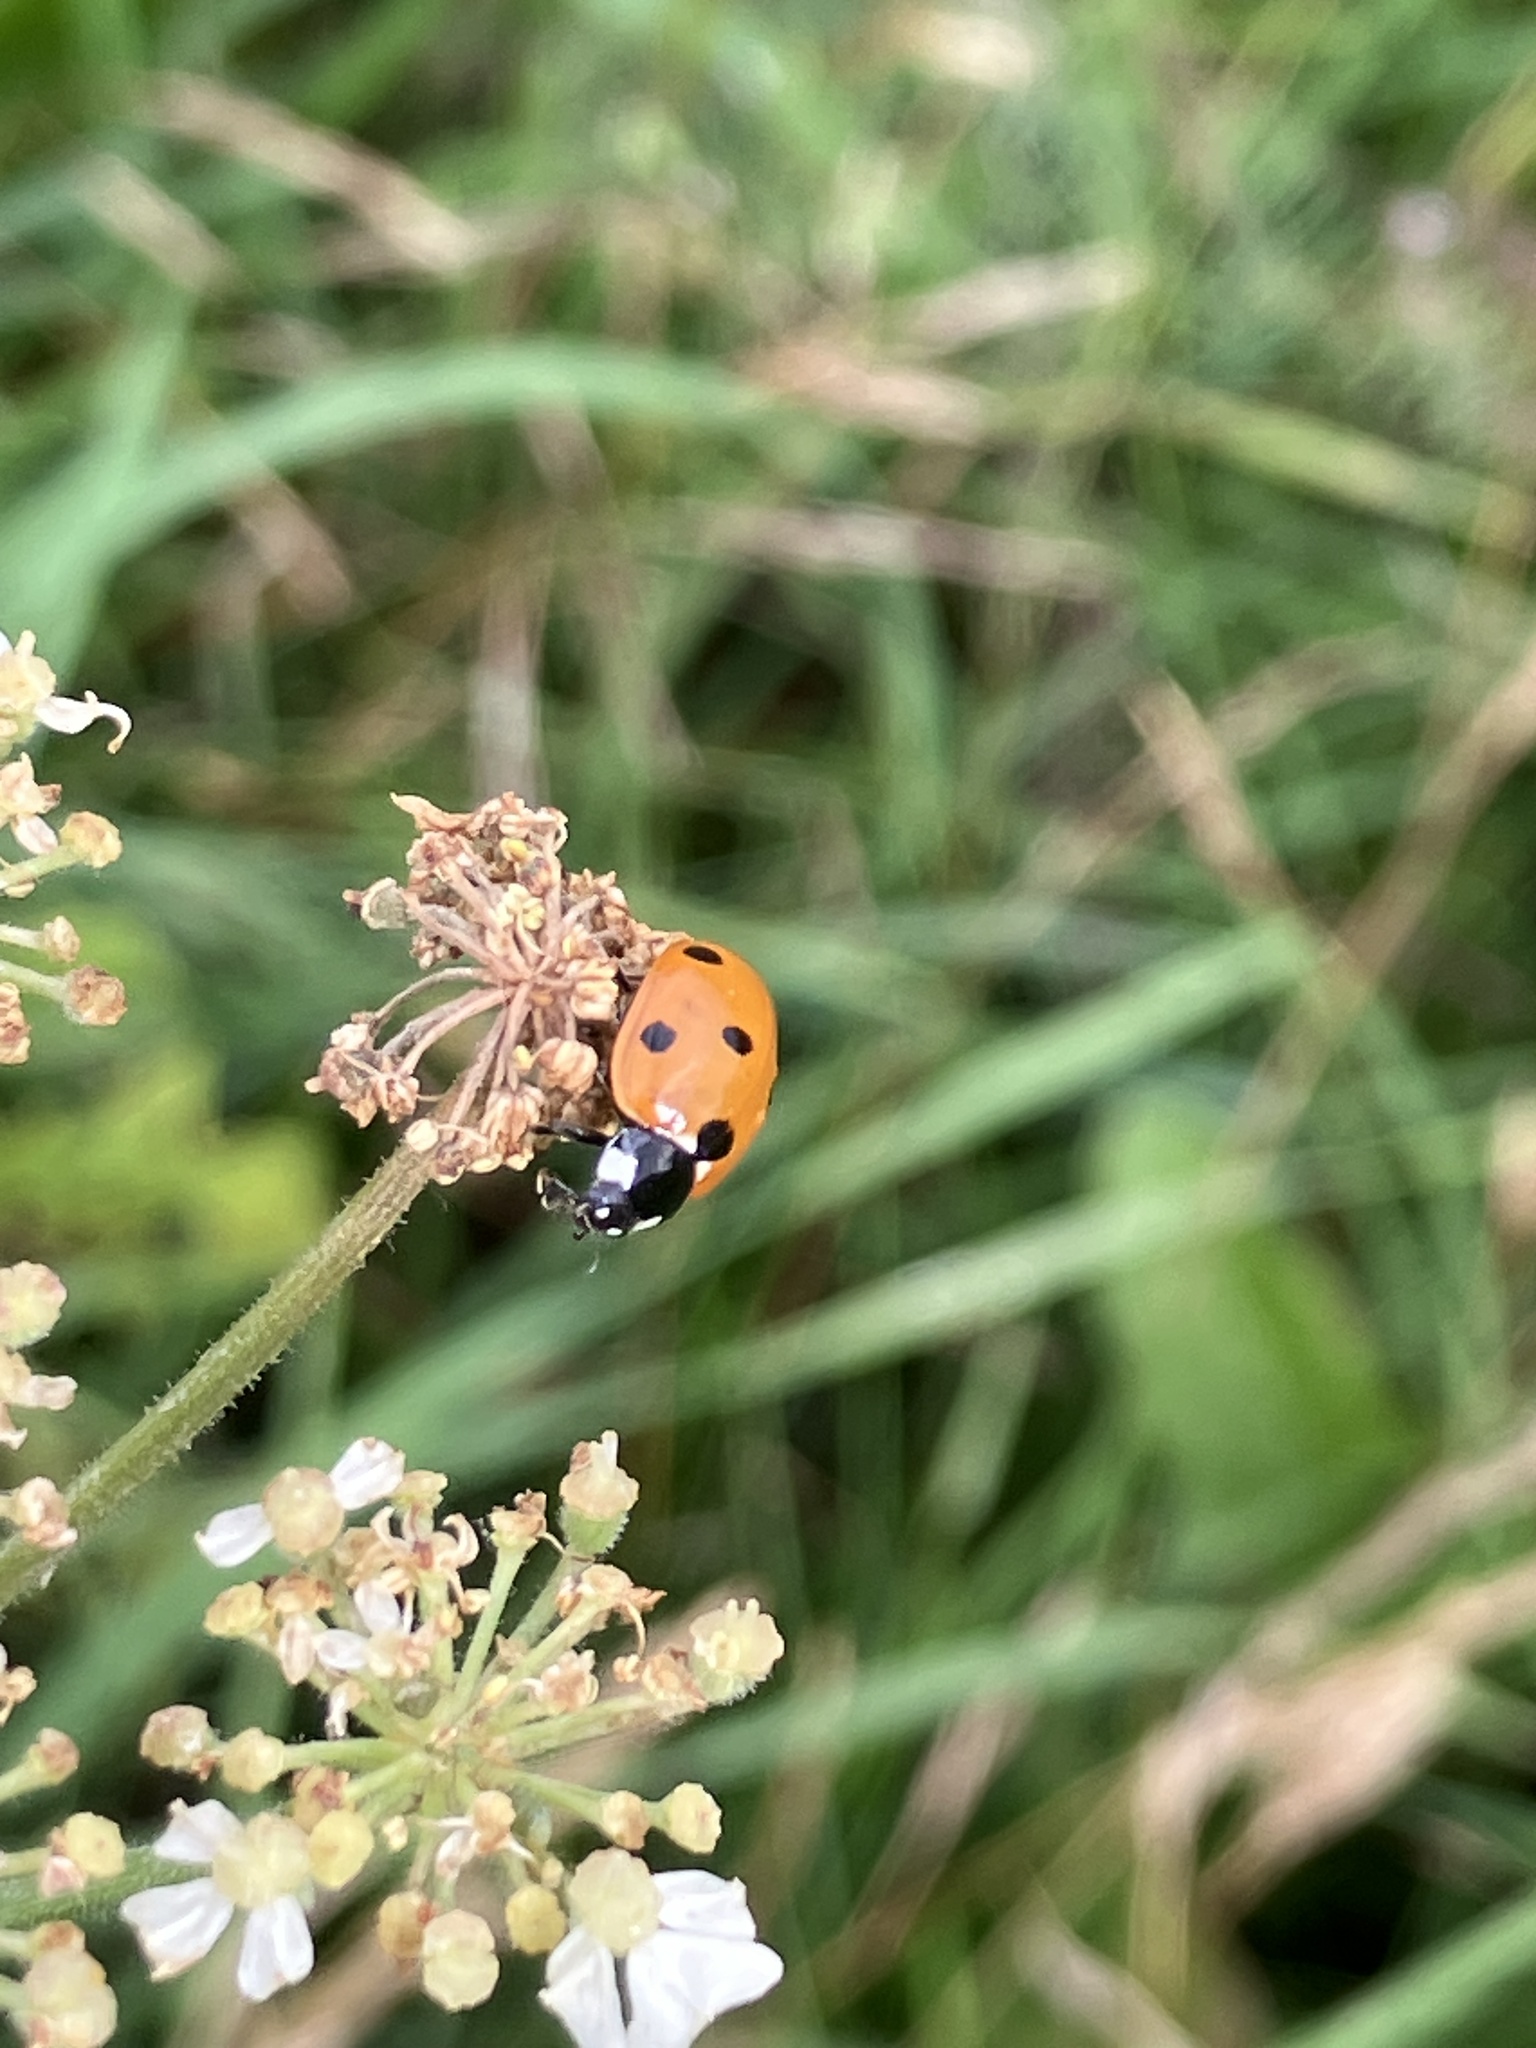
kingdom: Animalia
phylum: Arthropoda
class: Insecta
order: Coleoptera
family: Coccinellidae
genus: Coccinella
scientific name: Coccinella septempunctata
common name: Sevenspotted lady beetle
